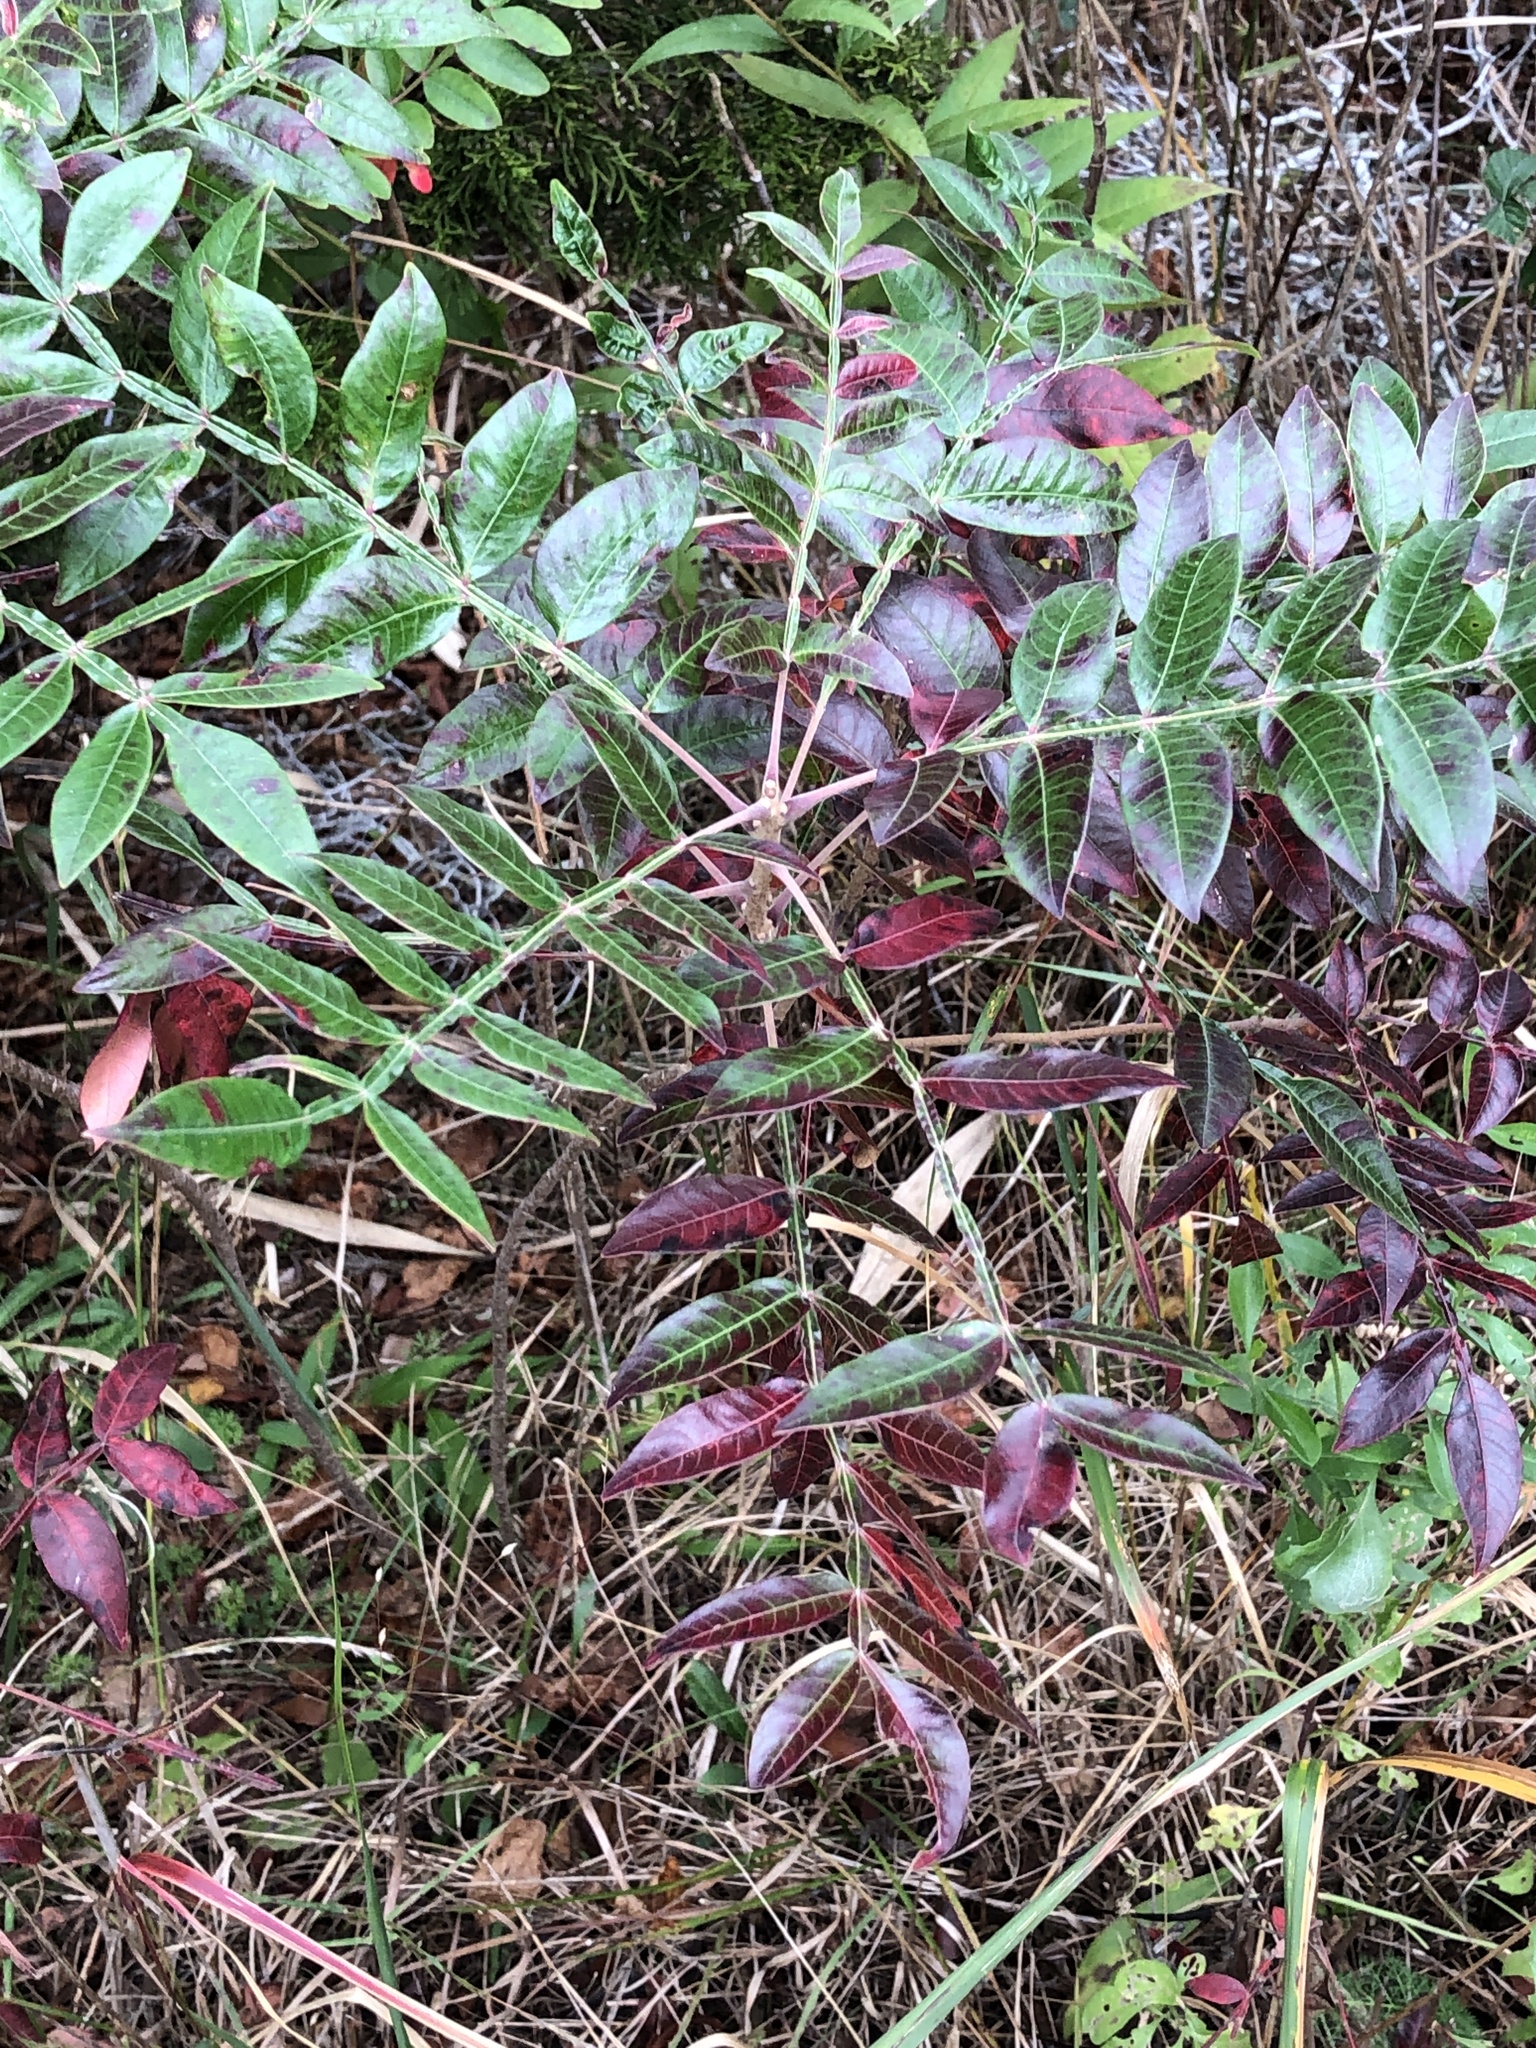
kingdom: Plantae
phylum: Tracheophyta
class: Magnoliopsida
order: Sapindales
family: Anacardiaceae
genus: Rhus
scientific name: Rhus copallina
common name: Shining sumac
